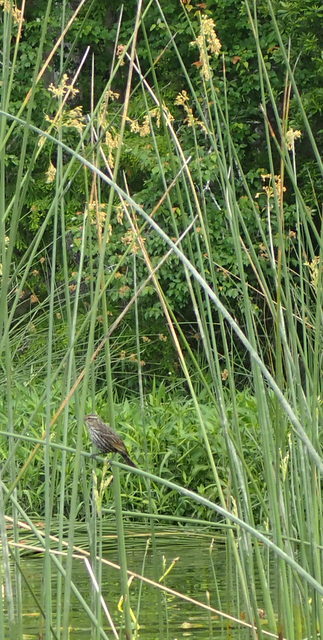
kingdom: Animalia
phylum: Chordata
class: Aves
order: Passeriformes
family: Icteridae
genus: Agelaius
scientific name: Agelaius phoeniceus
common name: Red-winged blackbird
